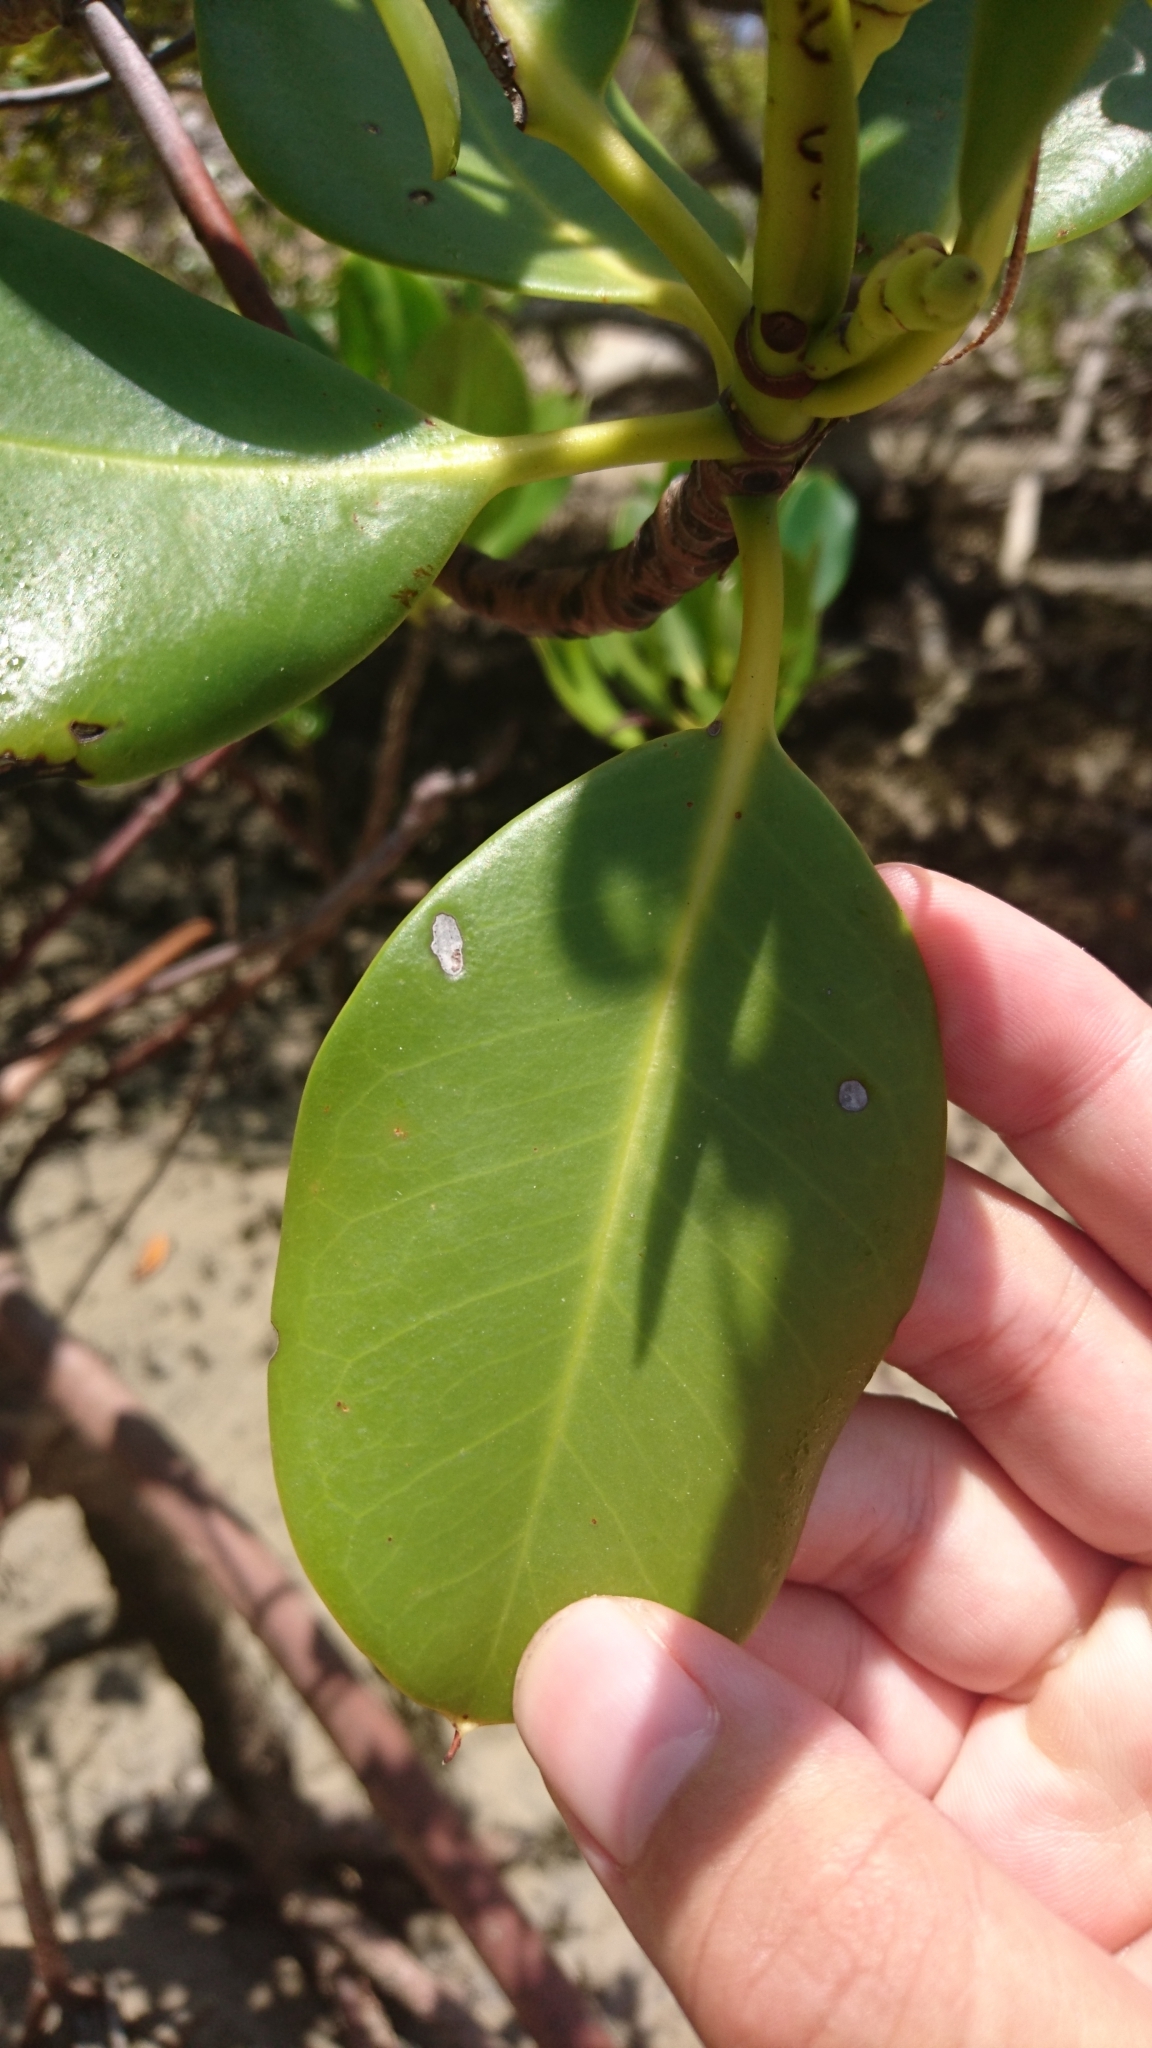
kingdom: Plantae
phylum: Tracheophyta
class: Magnoliopsida
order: Malpighiales
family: Rhizophoraceae
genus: Rhizophora
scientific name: Rhizophora stylosa
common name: Red mangrove
